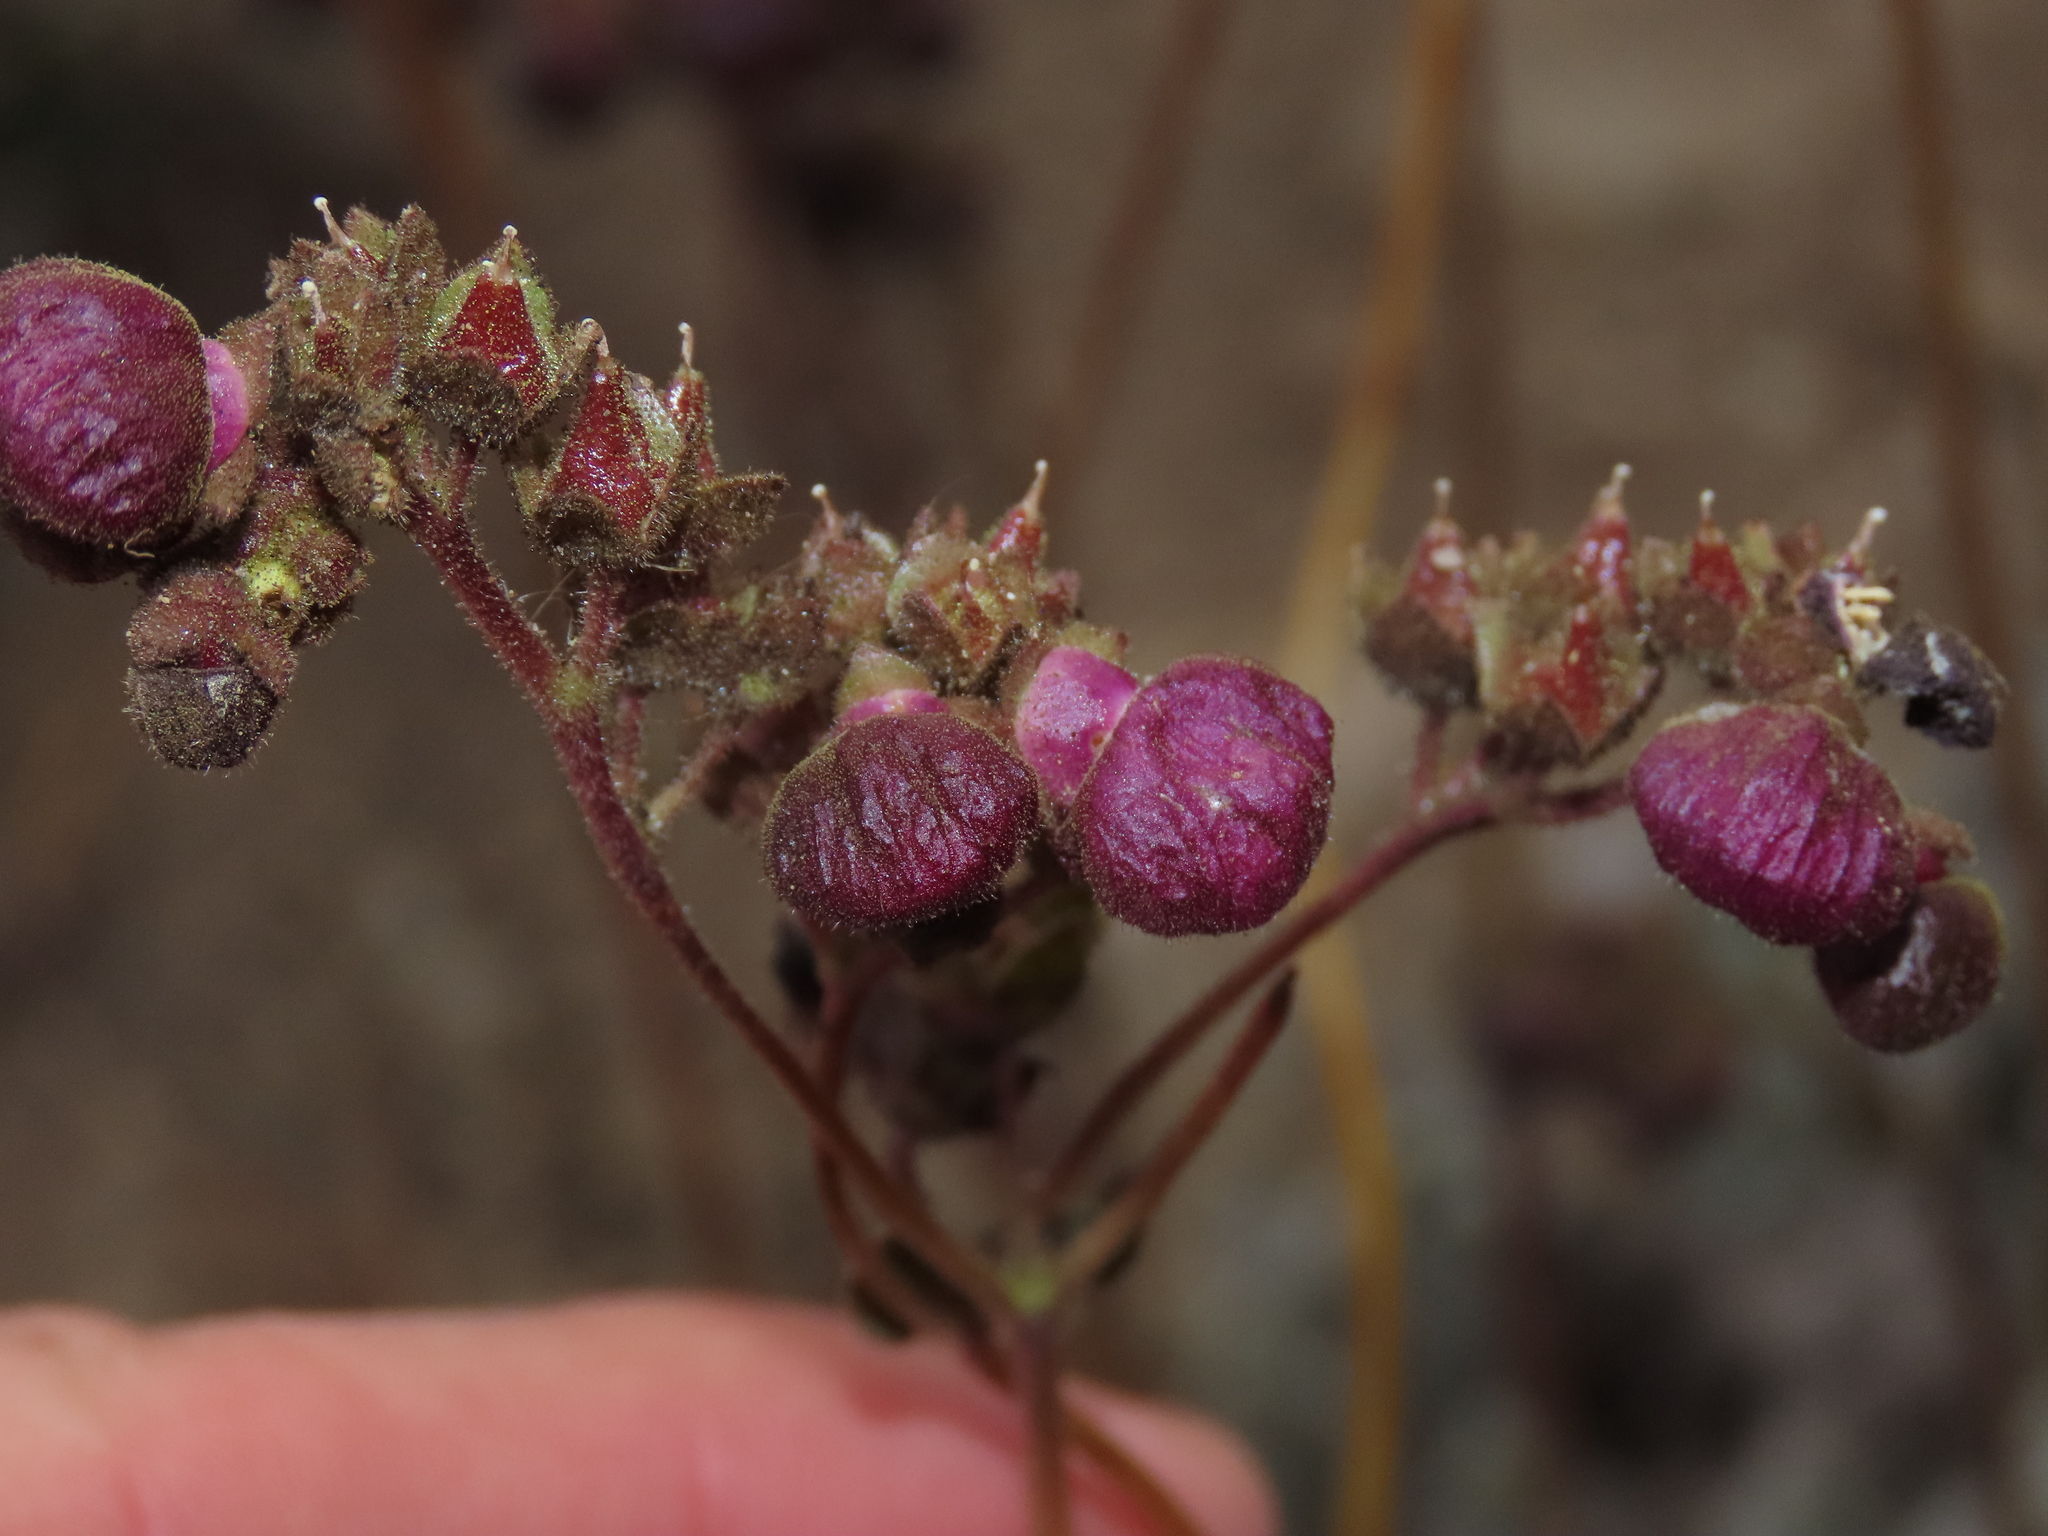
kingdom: Plantae
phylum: Tracheophyta
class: Magnoliopsida
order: Lamiales
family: Calceolariaceae
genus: Calceolaria
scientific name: Calceolaria arachnoidea
